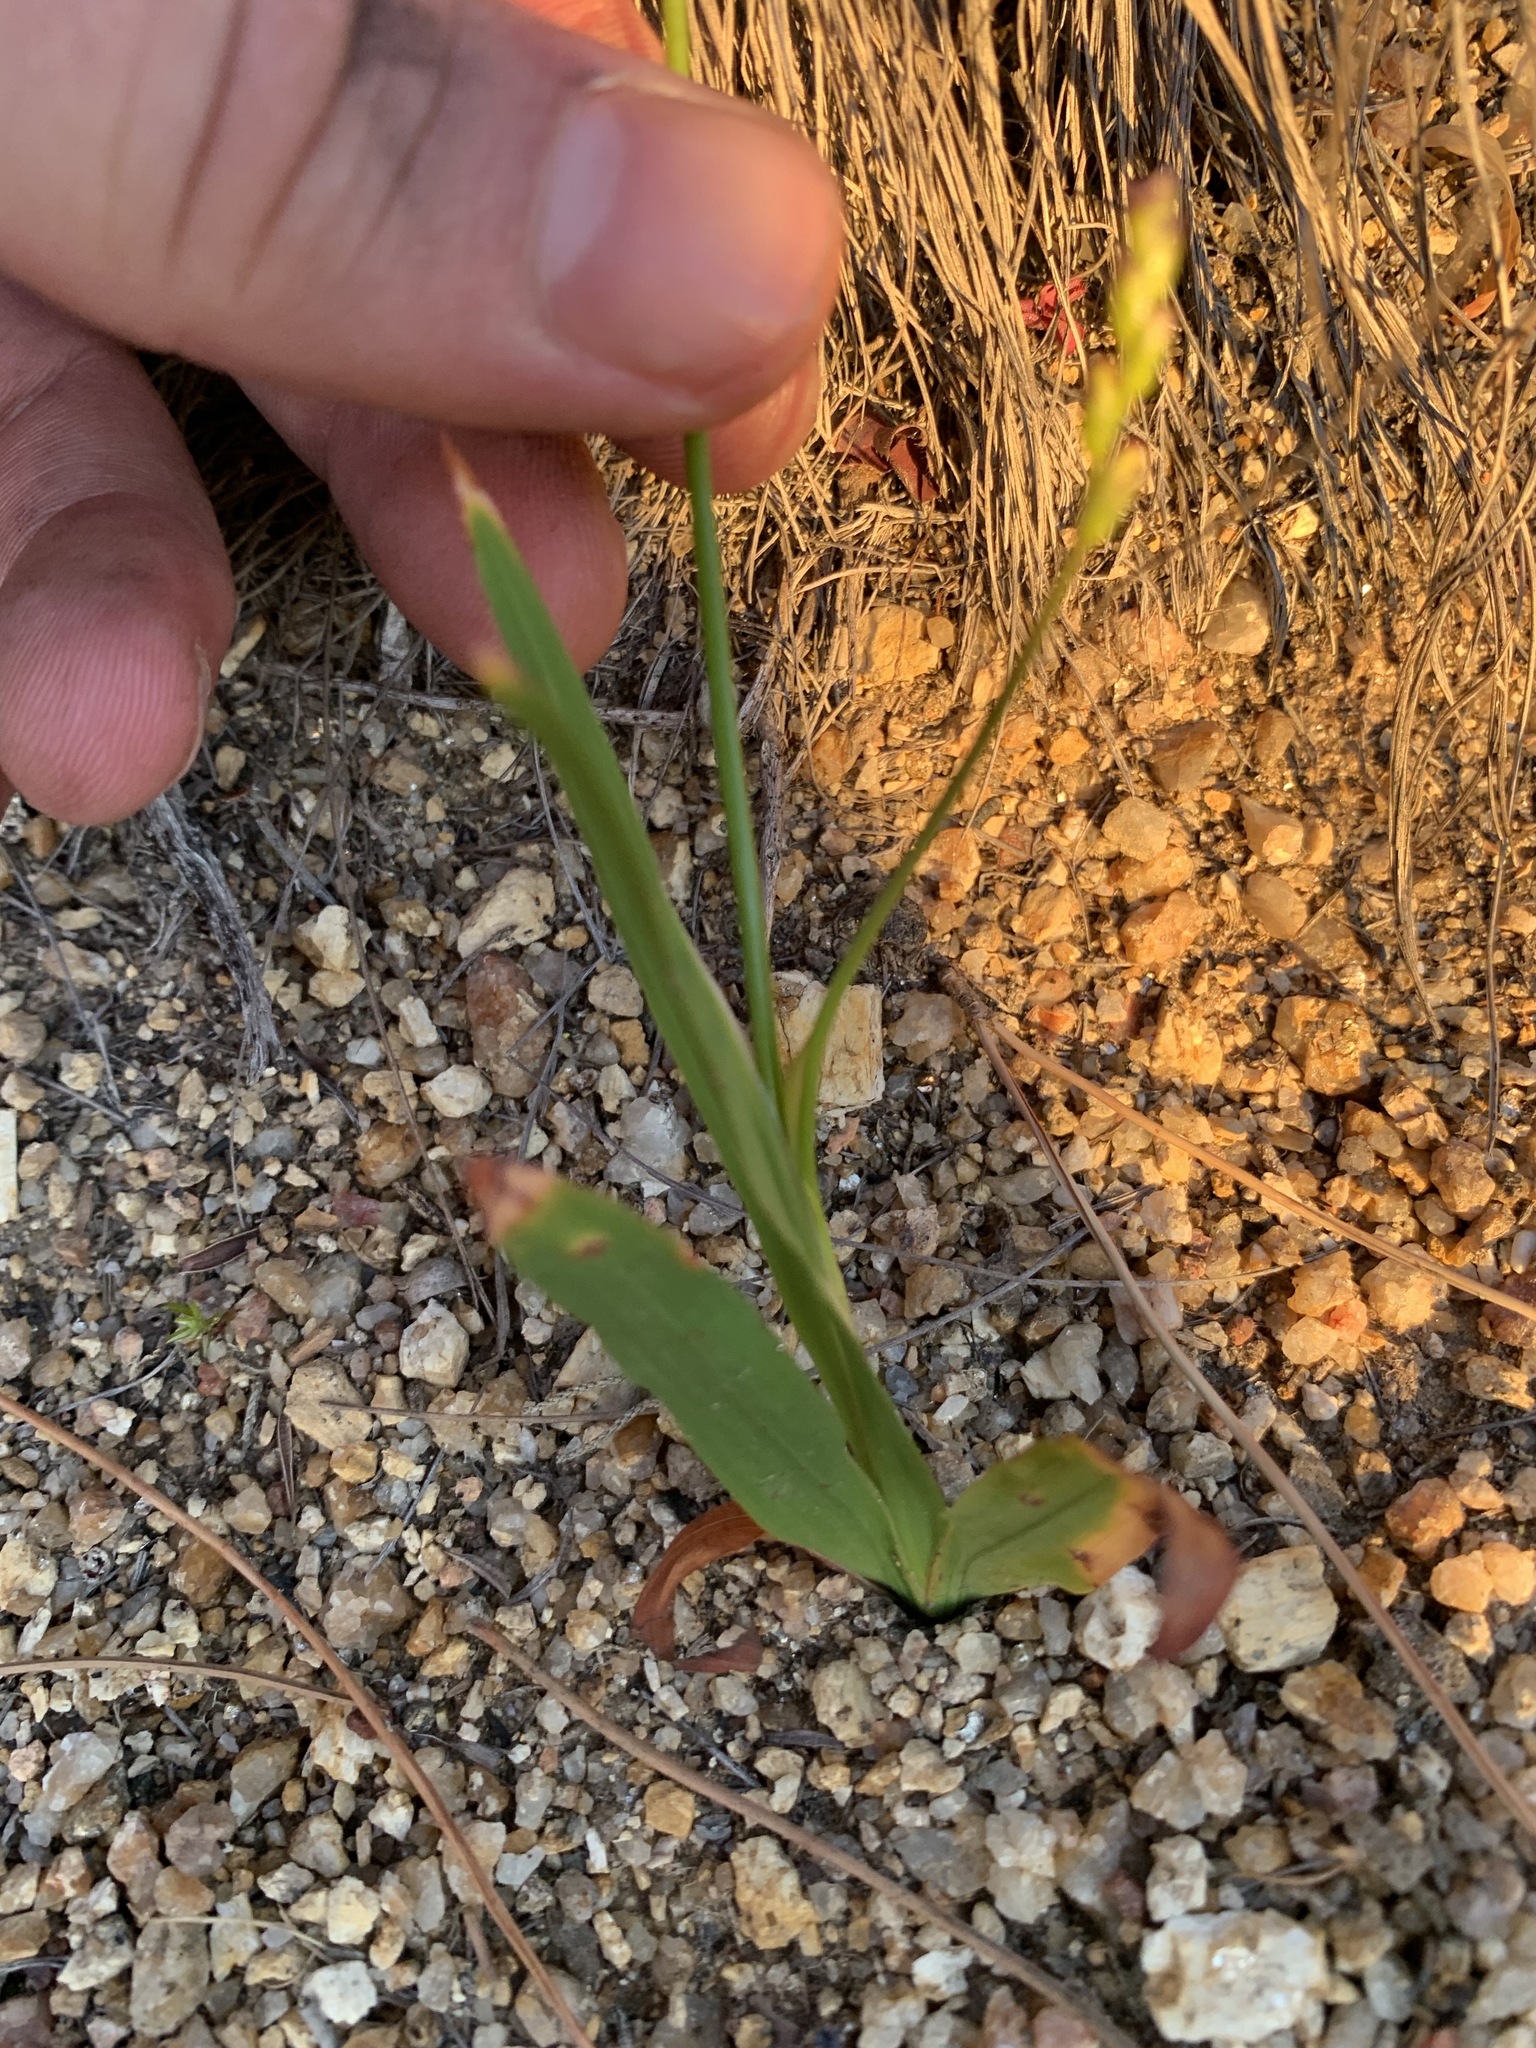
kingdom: Plantae
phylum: Tracheophyta
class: Liliopsida
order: Asparagales
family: Iridaceae
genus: Ixia
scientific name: Ixia scillaris
